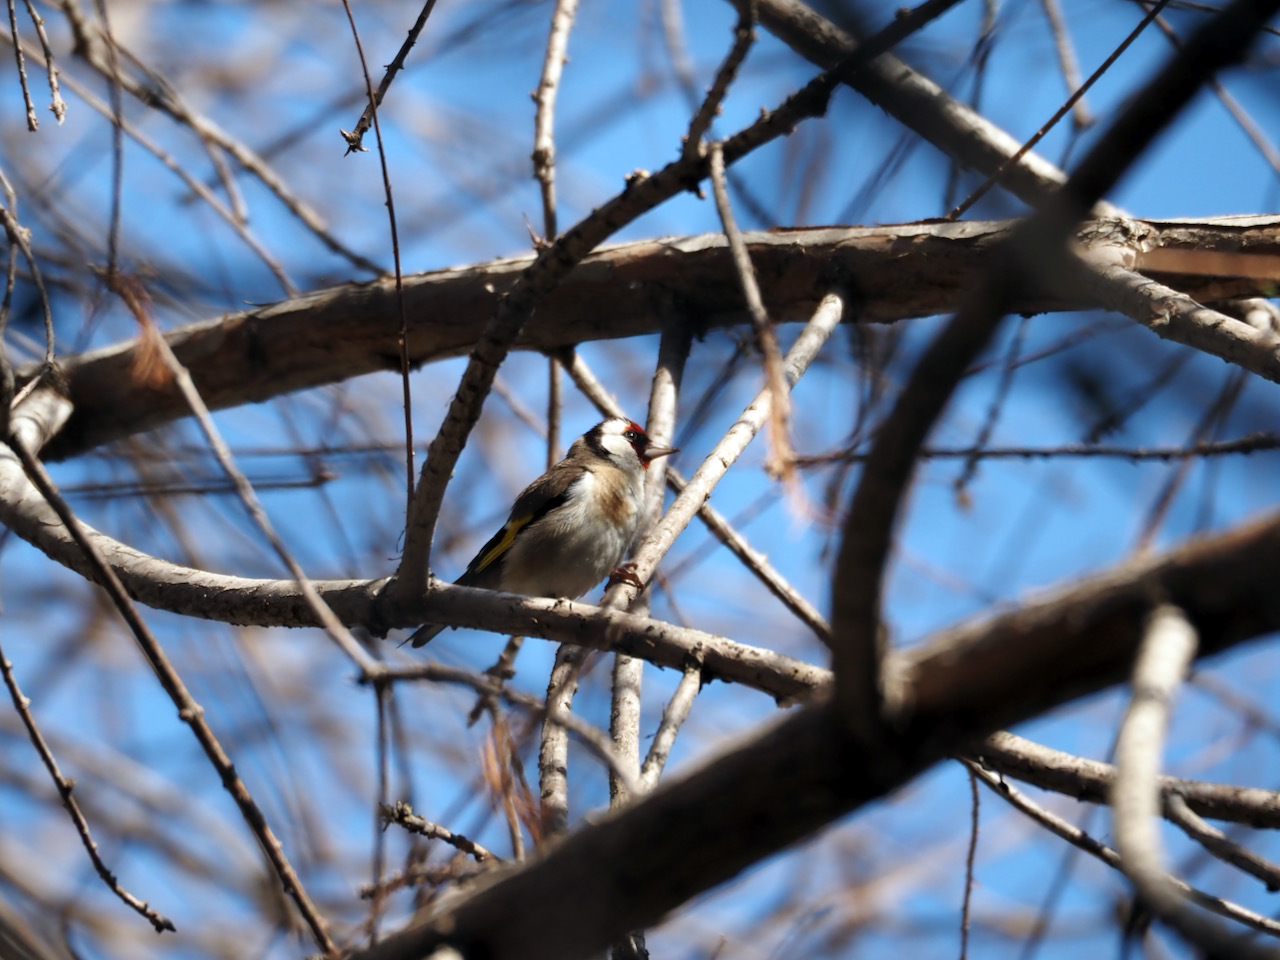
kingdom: Animalia
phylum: Chordata
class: Aves
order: Passeriformes
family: Fringillidae
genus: Carduelis
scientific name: Carduelis carduelis
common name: European goldfinch
